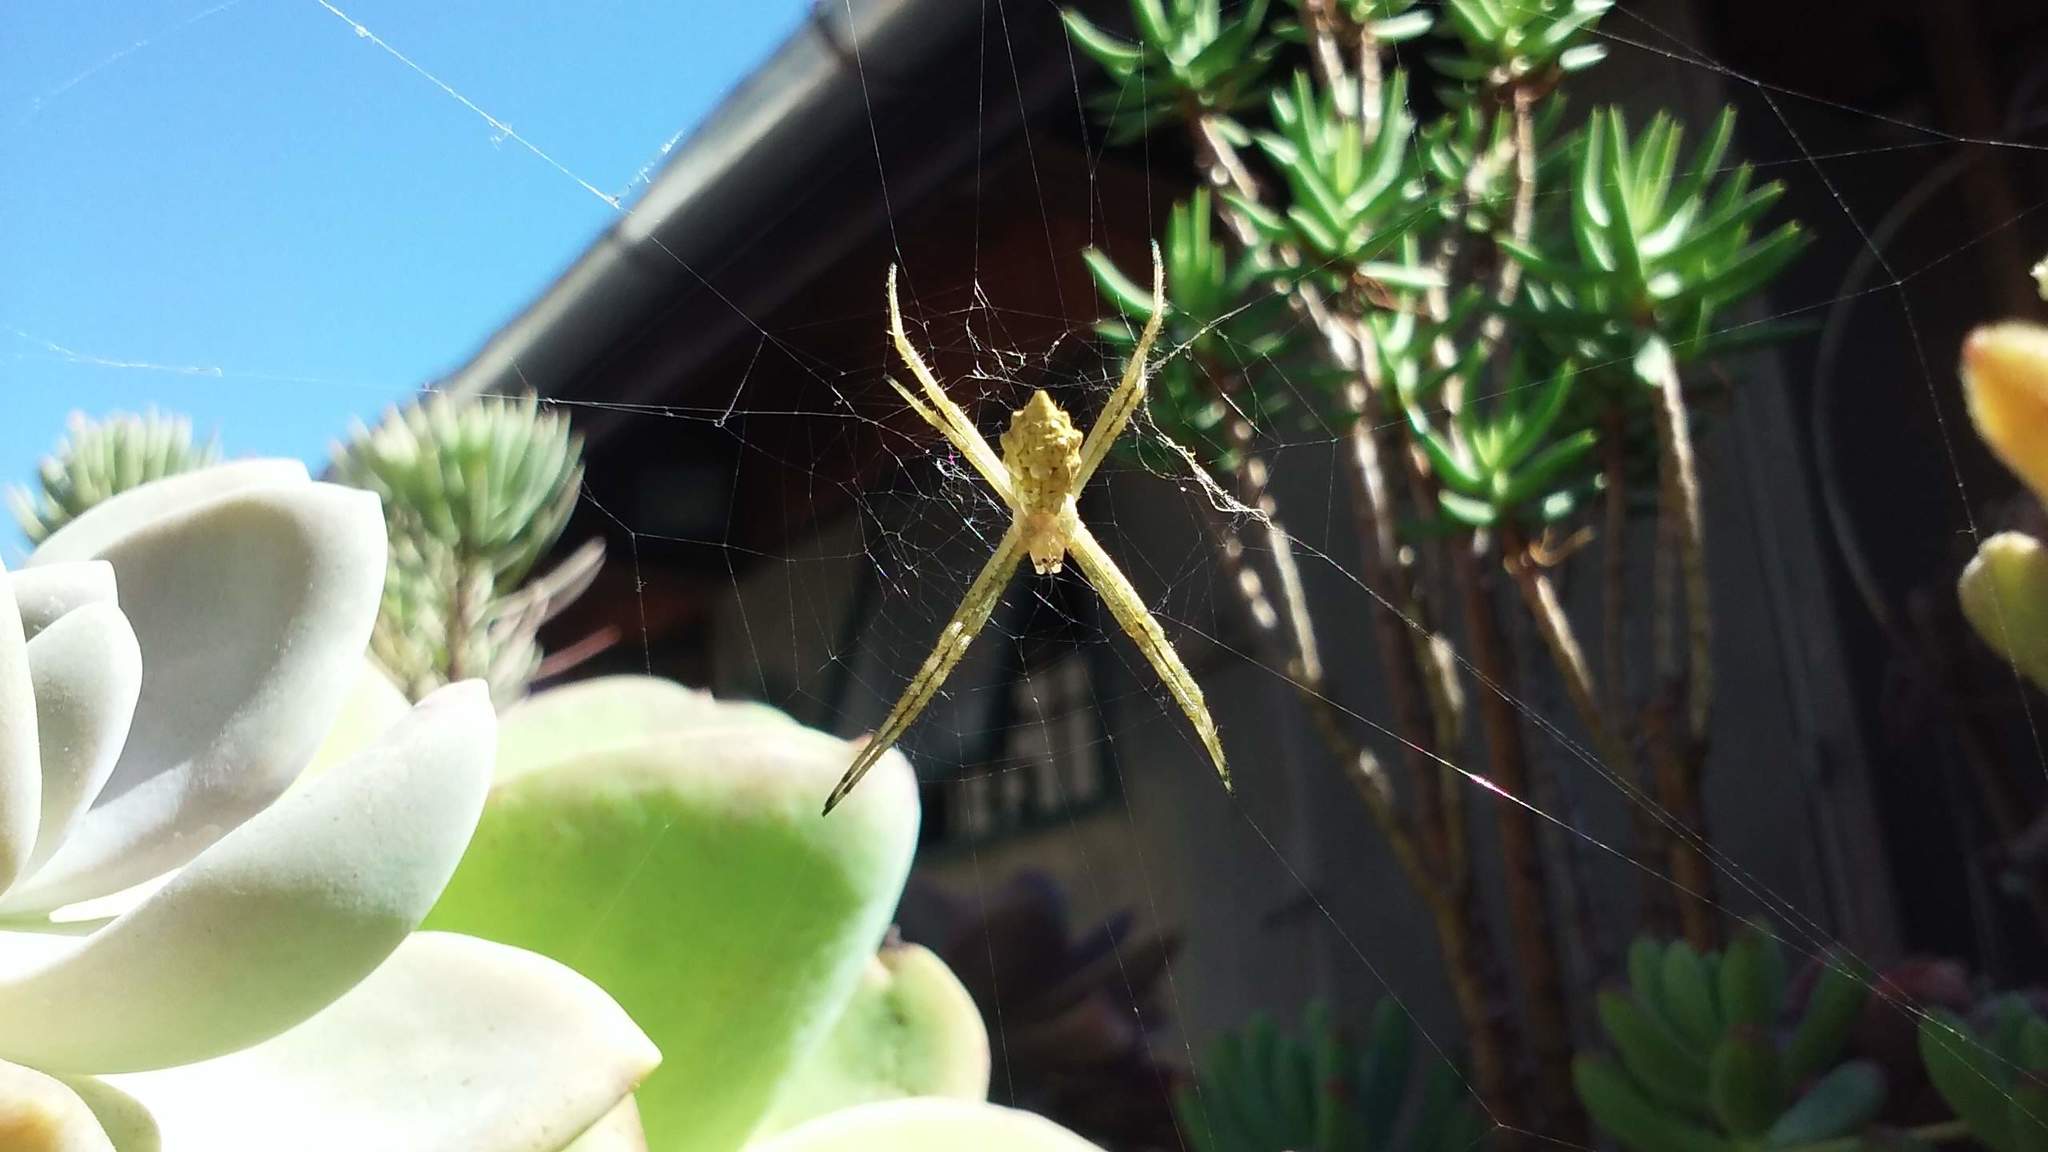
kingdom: Animalia
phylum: Arthropoda
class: Arachnida
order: Araneae
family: Araneidae
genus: Argiope
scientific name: Argiope argentata
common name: Orb weavers
